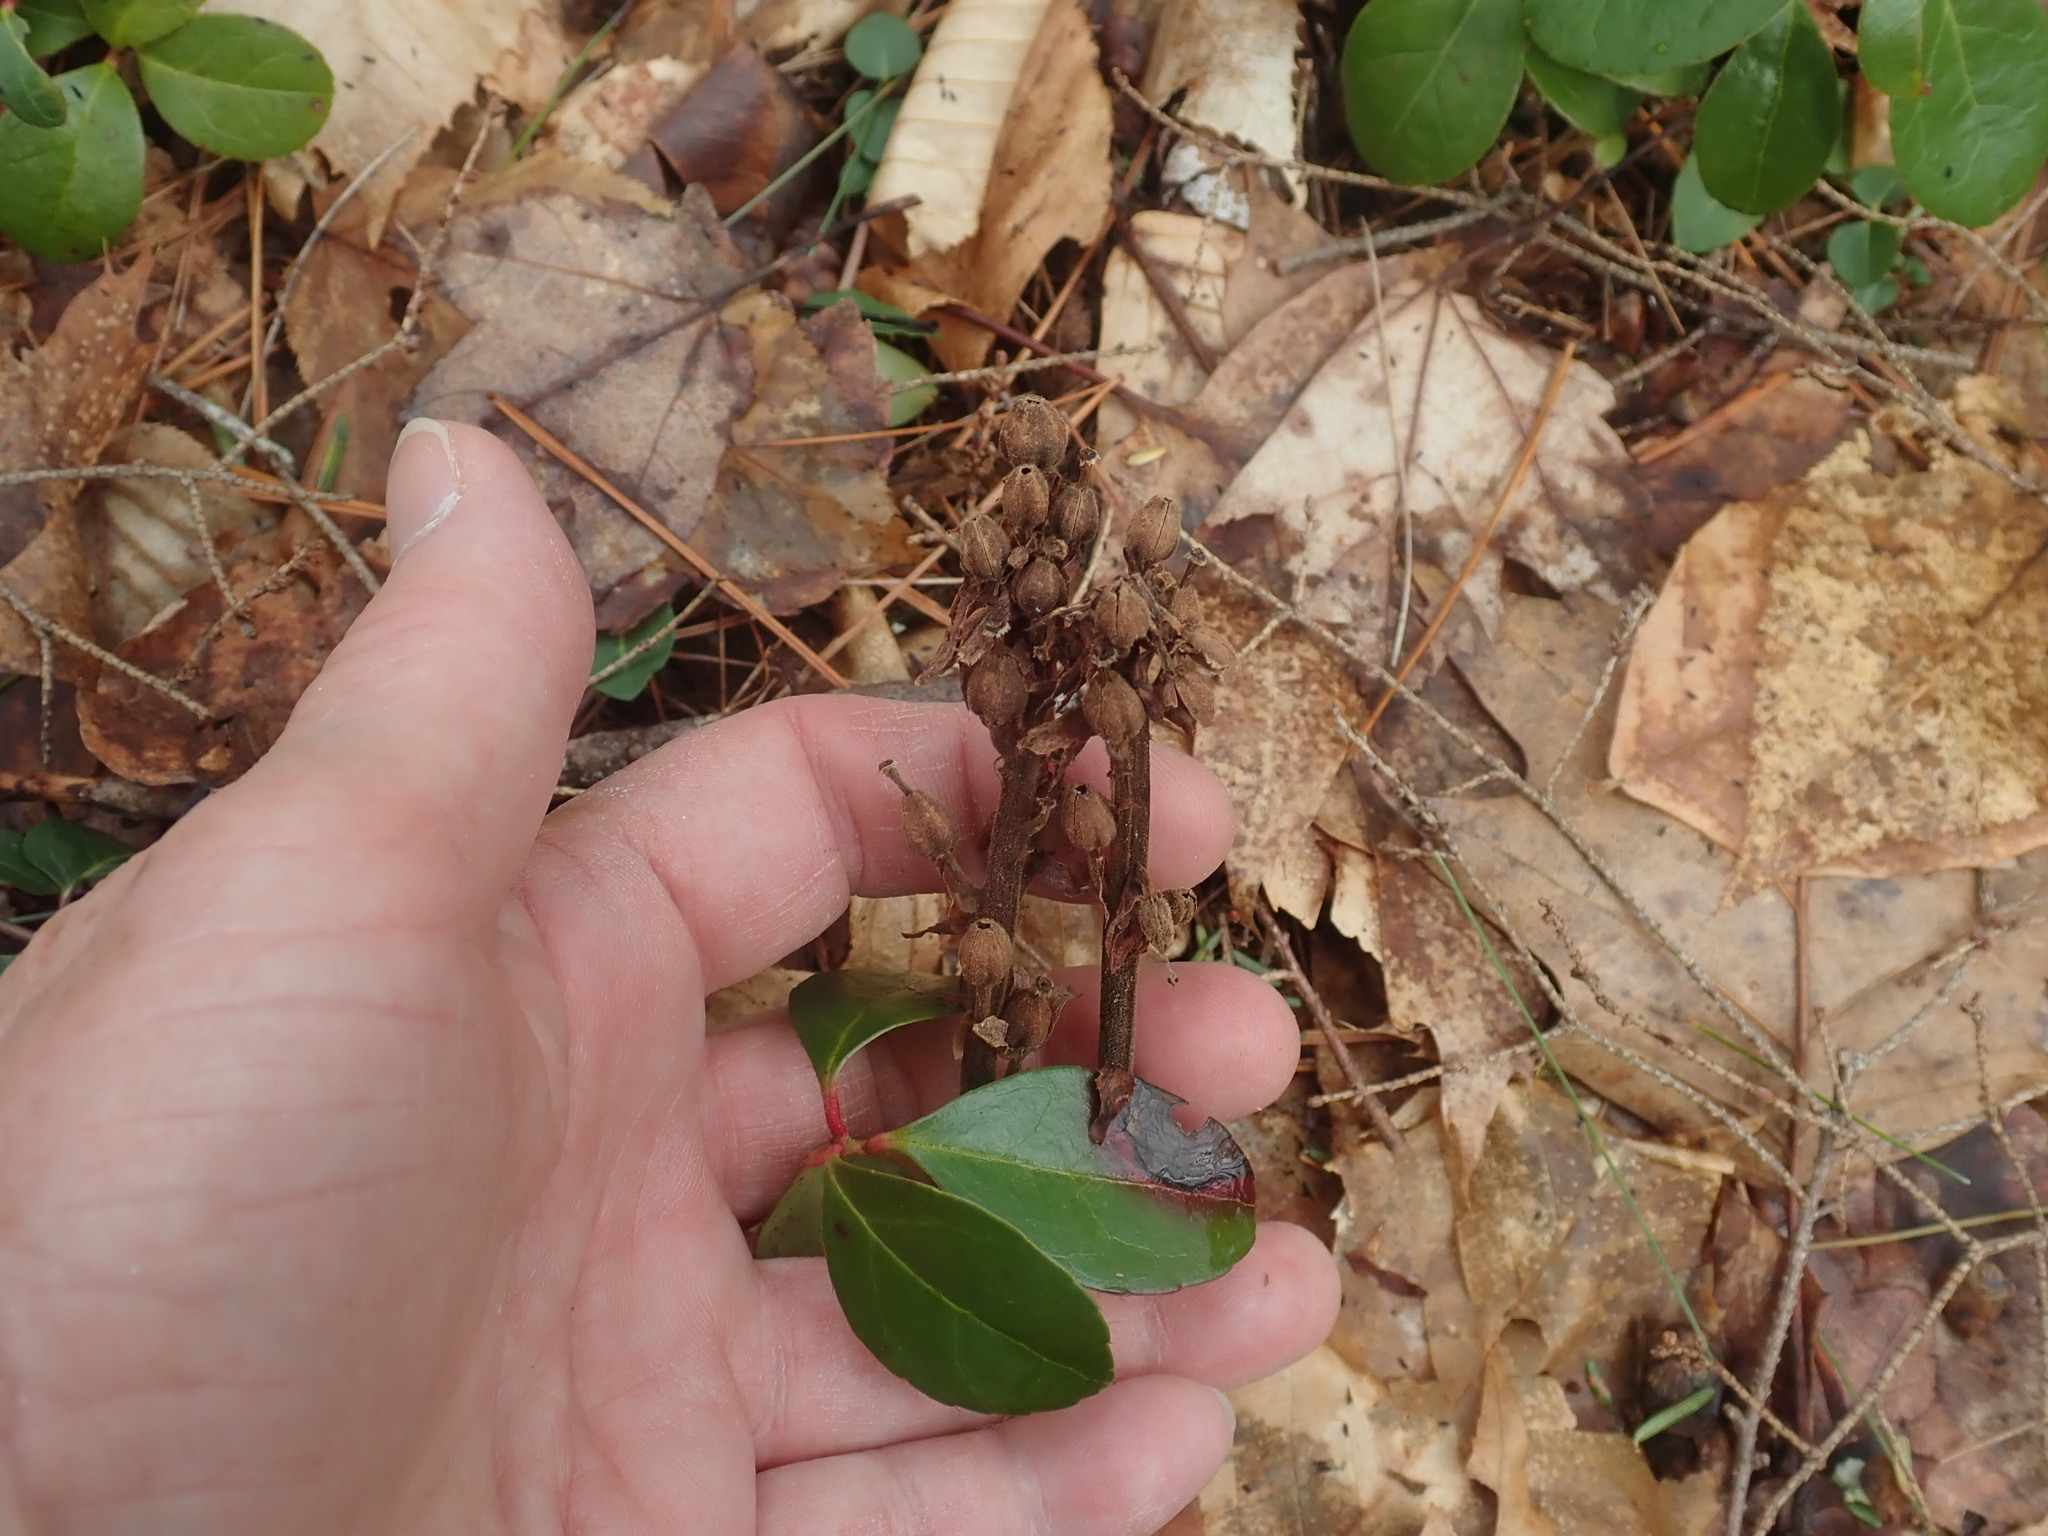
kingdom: Plantae
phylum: Tracheophyta
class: Magnoliopsida
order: Ericales
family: Ericaceae
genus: Hypopitys
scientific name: Hypopitys monotropa
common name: Yellow bird's-nest
